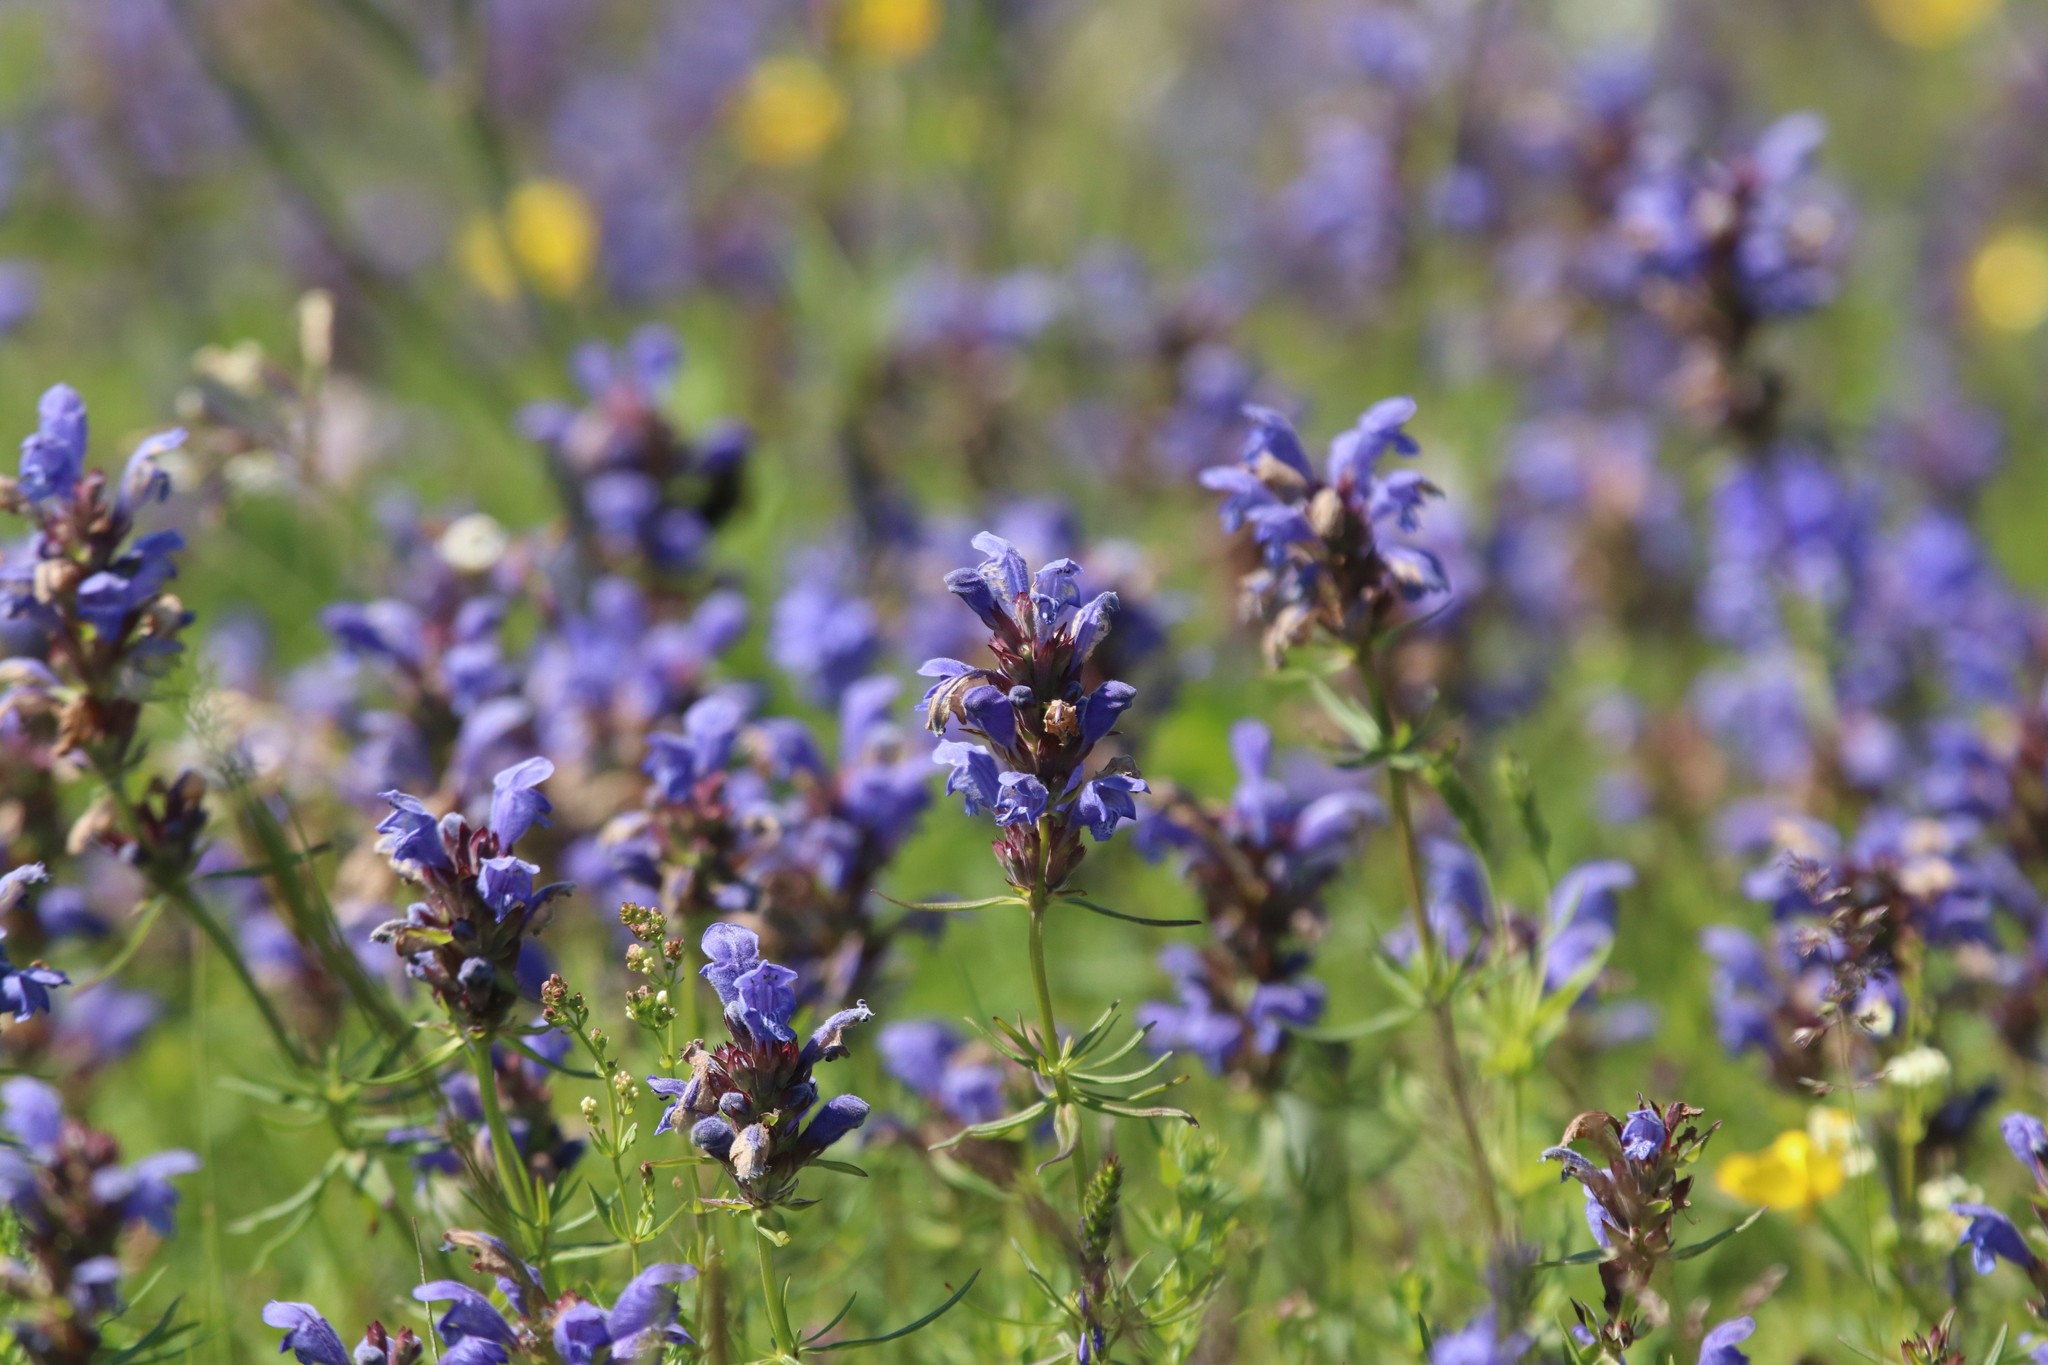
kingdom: Plantae
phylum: Tracheophyta
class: Magnoliopsida
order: Lamiales
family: Lamiaceae
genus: Dracocephalum
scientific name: Dracocephalum ruyschiana
